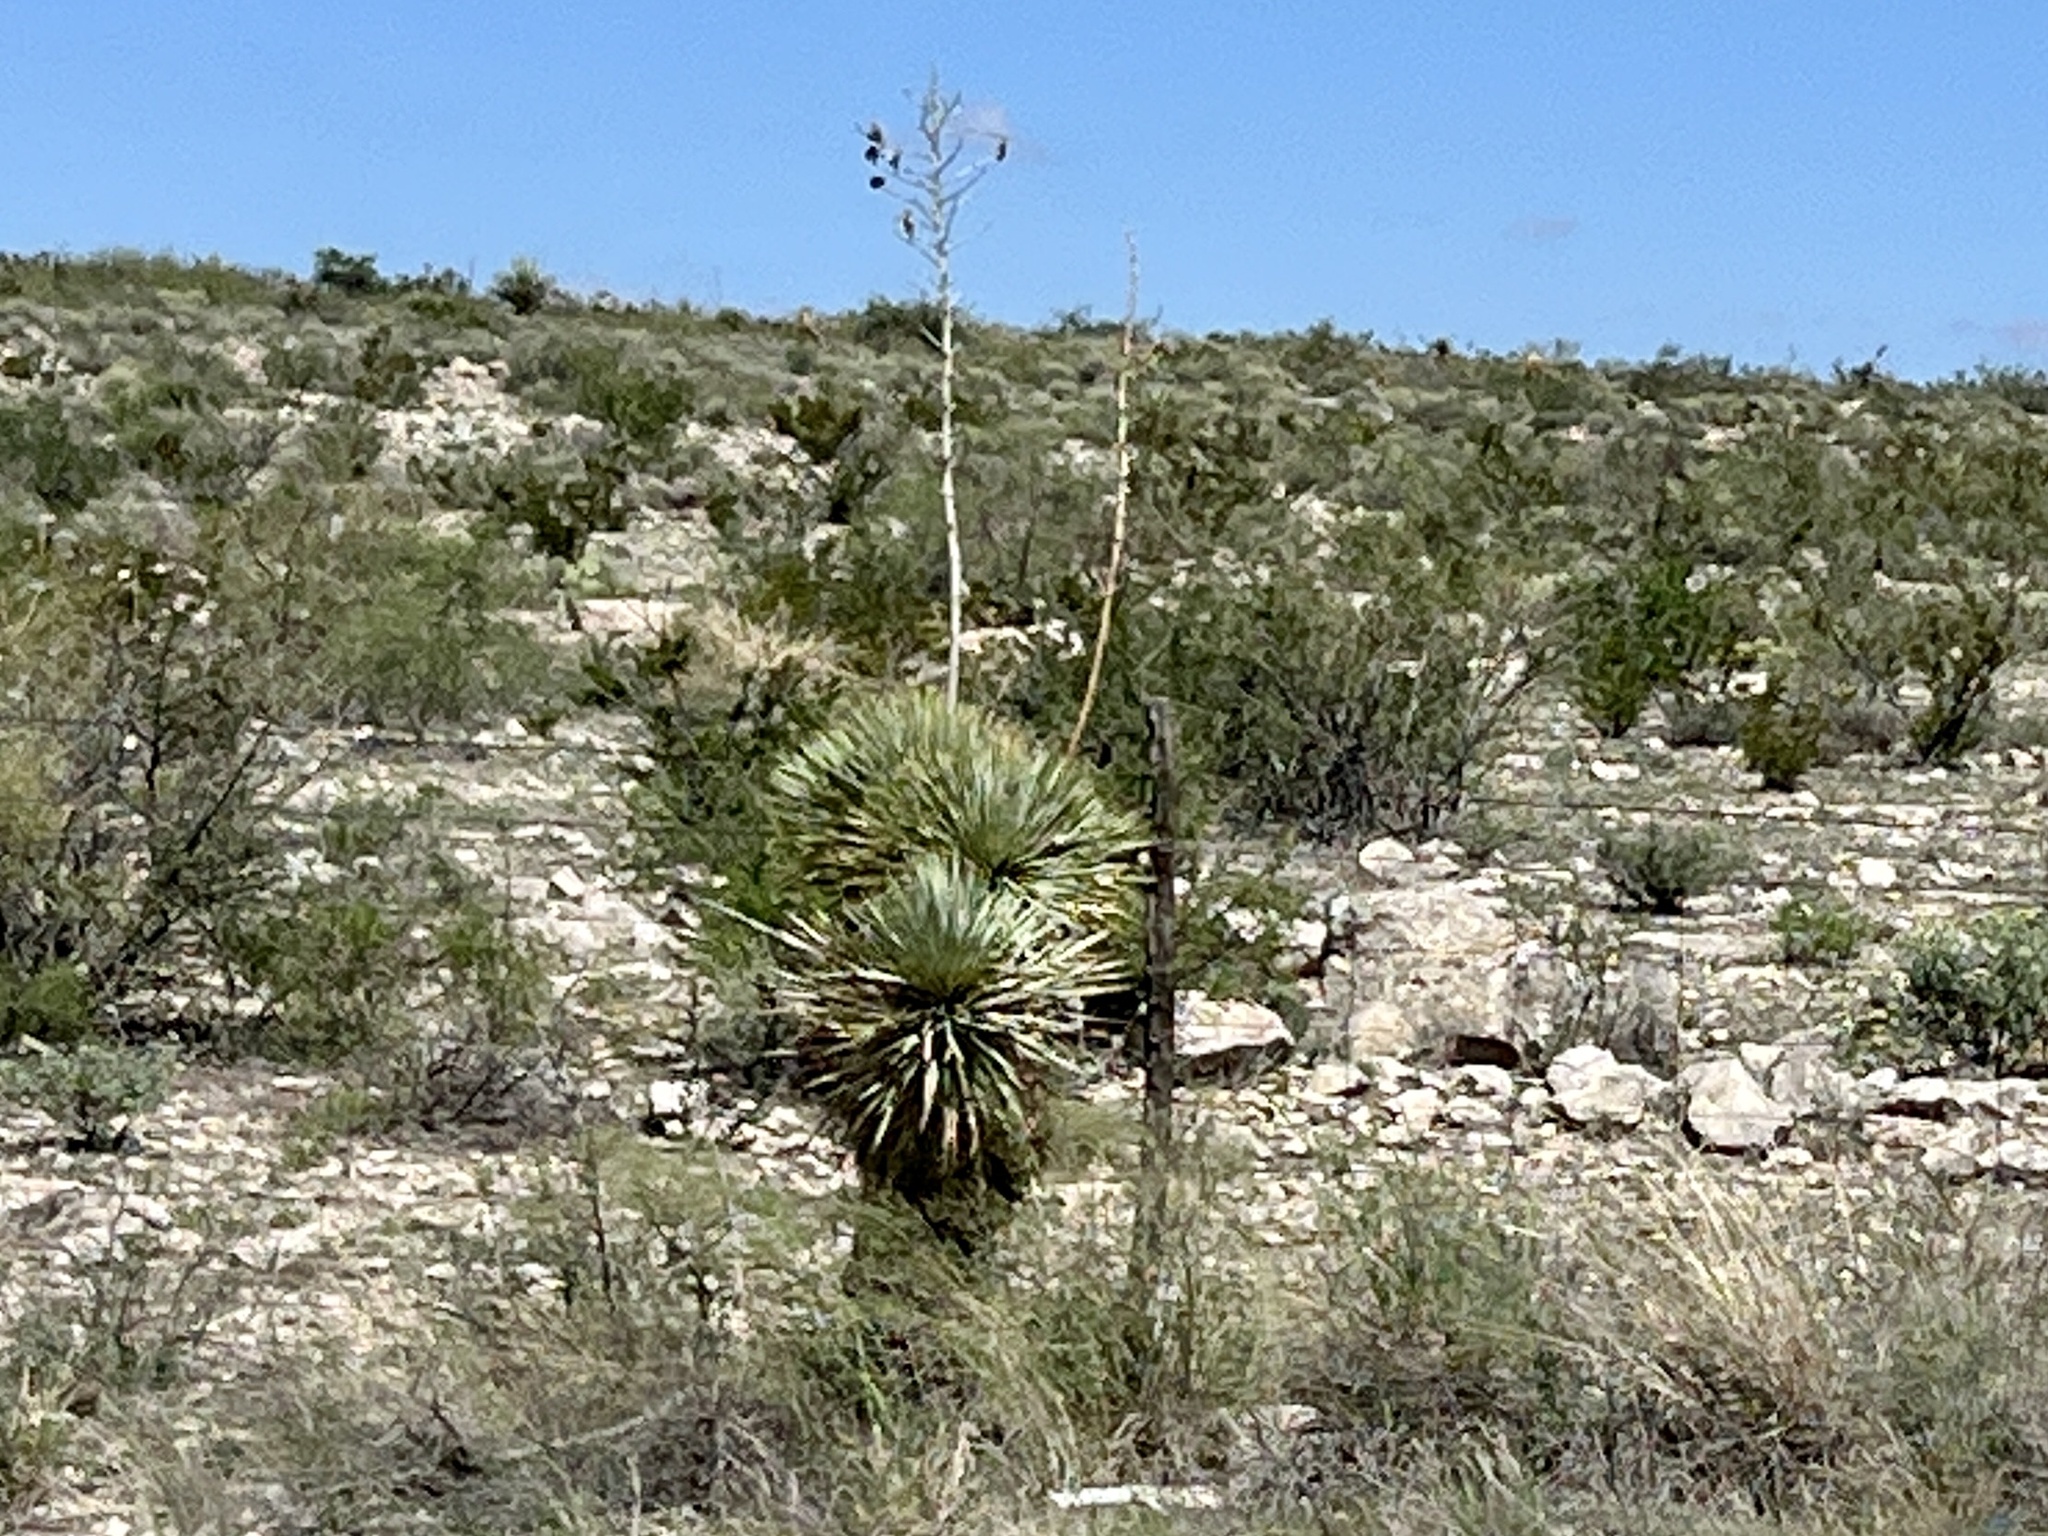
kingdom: Plantae
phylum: Tracheophyta
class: Liliopsida
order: Asparagales
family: Asparagaceae
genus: Yucca
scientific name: Yucca thompsoniana
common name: Trans-pecos yucca
